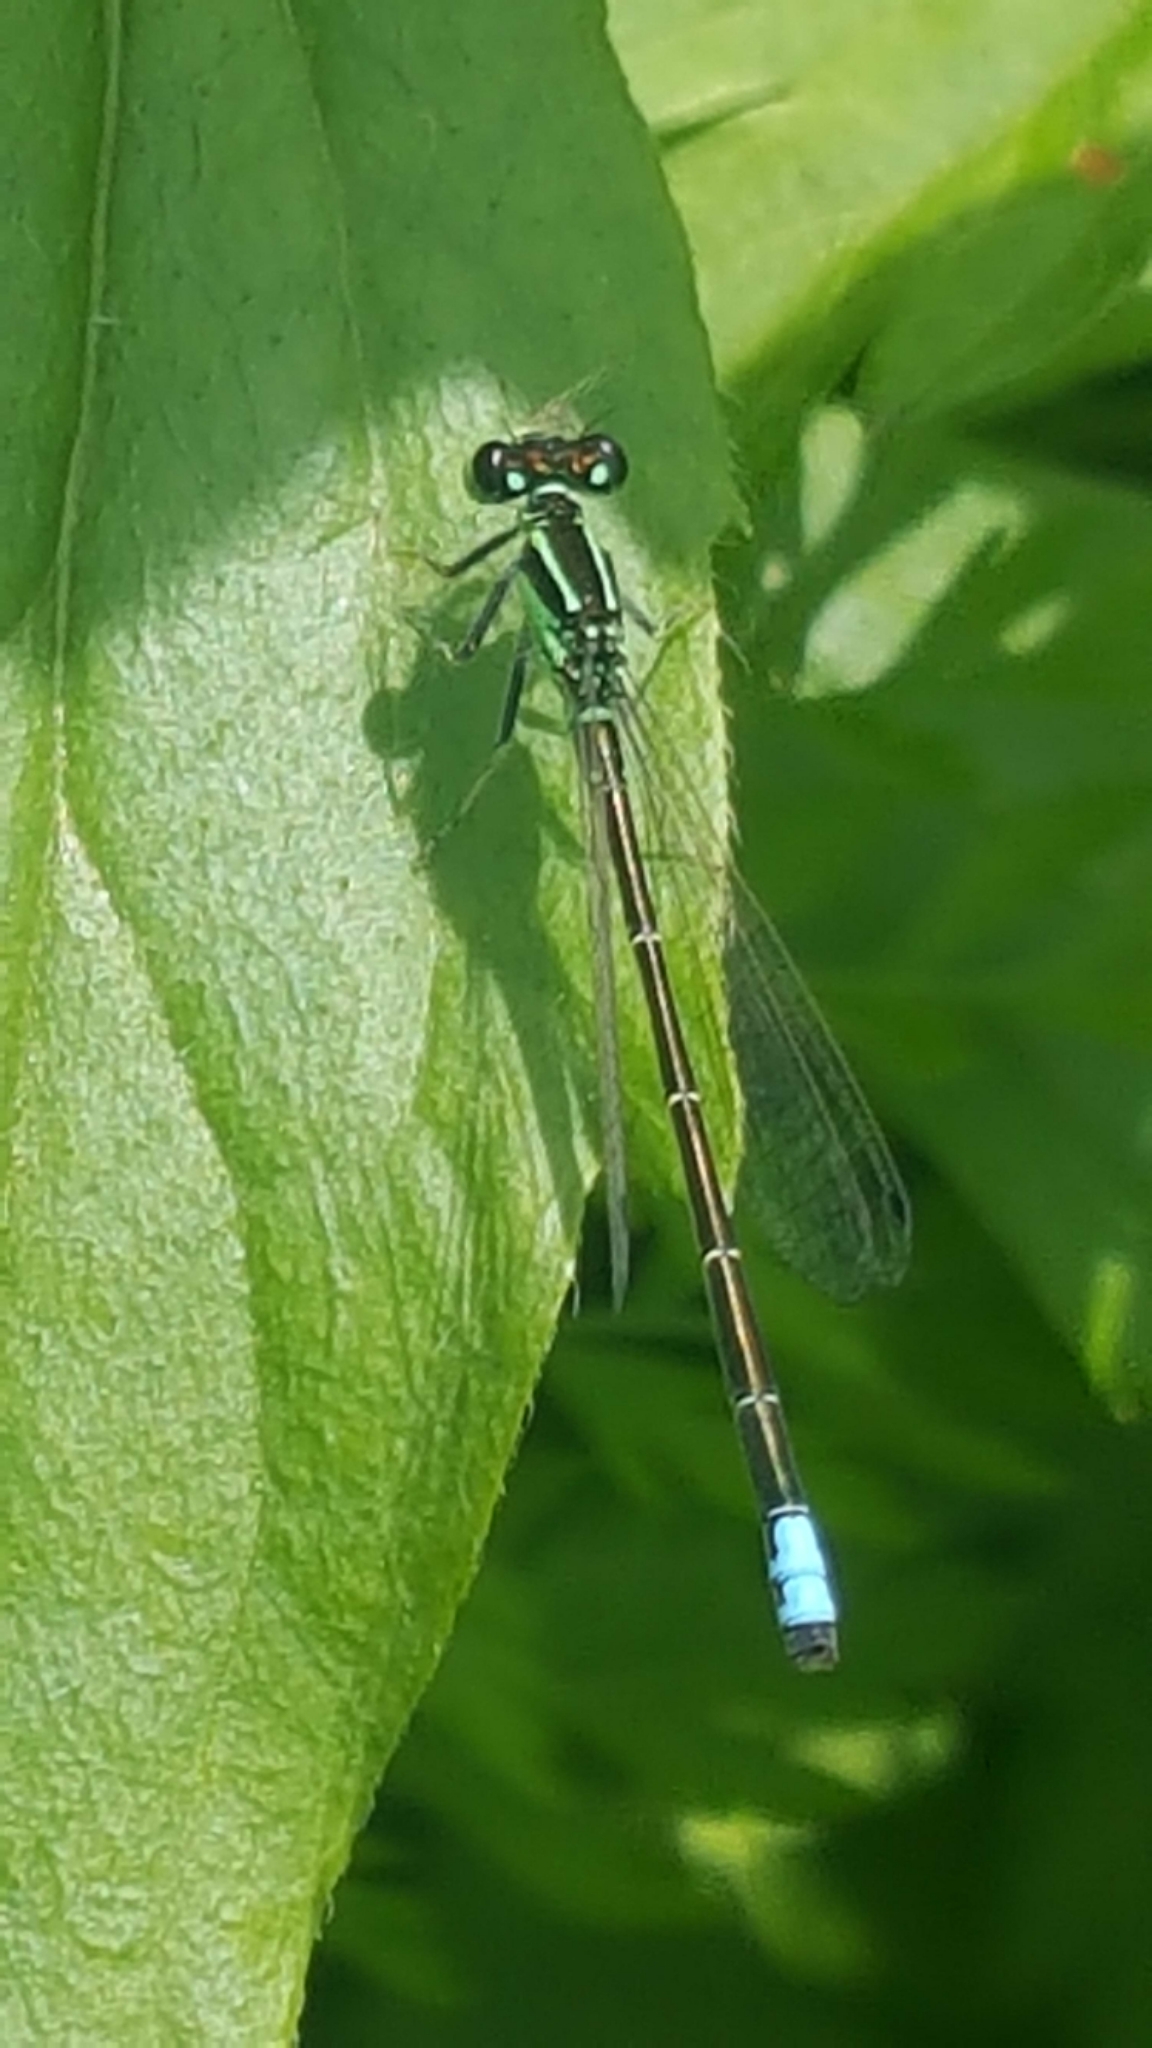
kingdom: Animalia
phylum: Arthropoda
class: Insecta
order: Odonata
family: Coenagrionidae
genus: Ischnura
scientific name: Ischnura verticalis
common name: Eastern forktail
